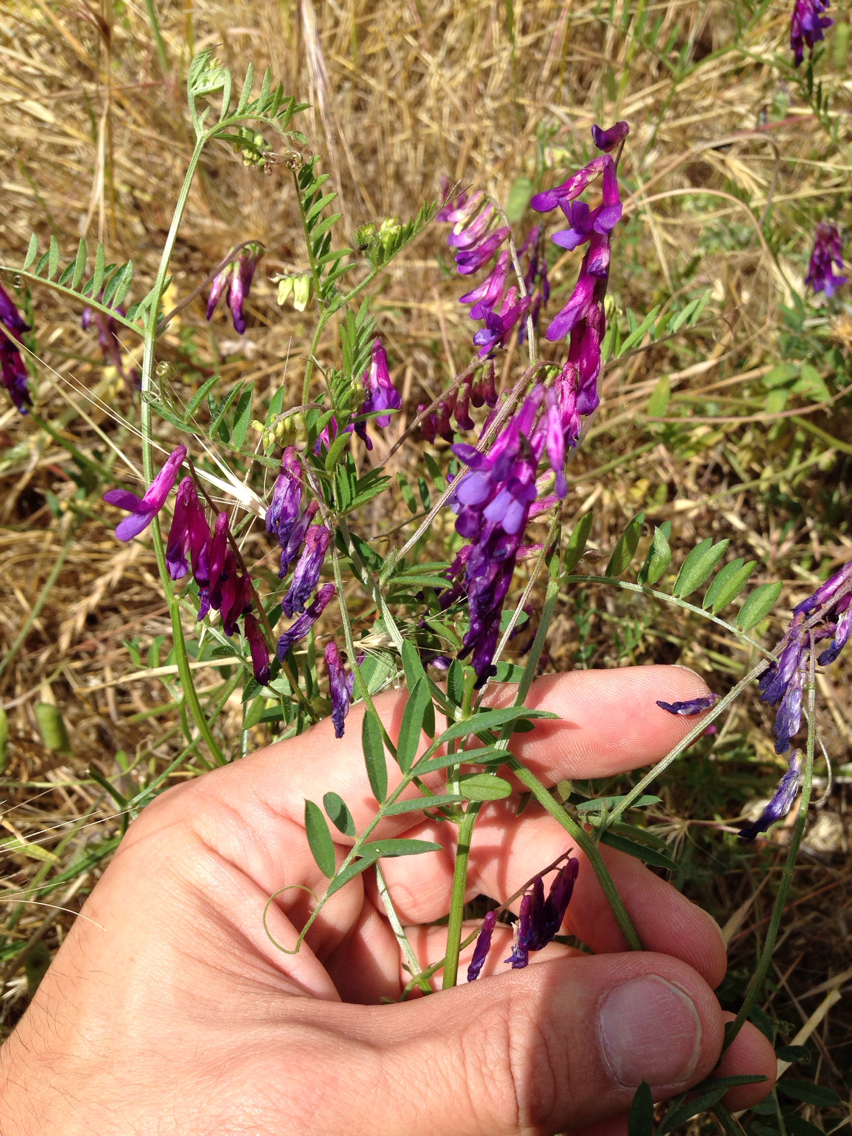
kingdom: Plantae
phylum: Tracheophyta
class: Magnoliopsida
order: Fabales
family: Fabaceae
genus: Vicia
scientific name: Vicia villosa
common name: Fodder vetch
